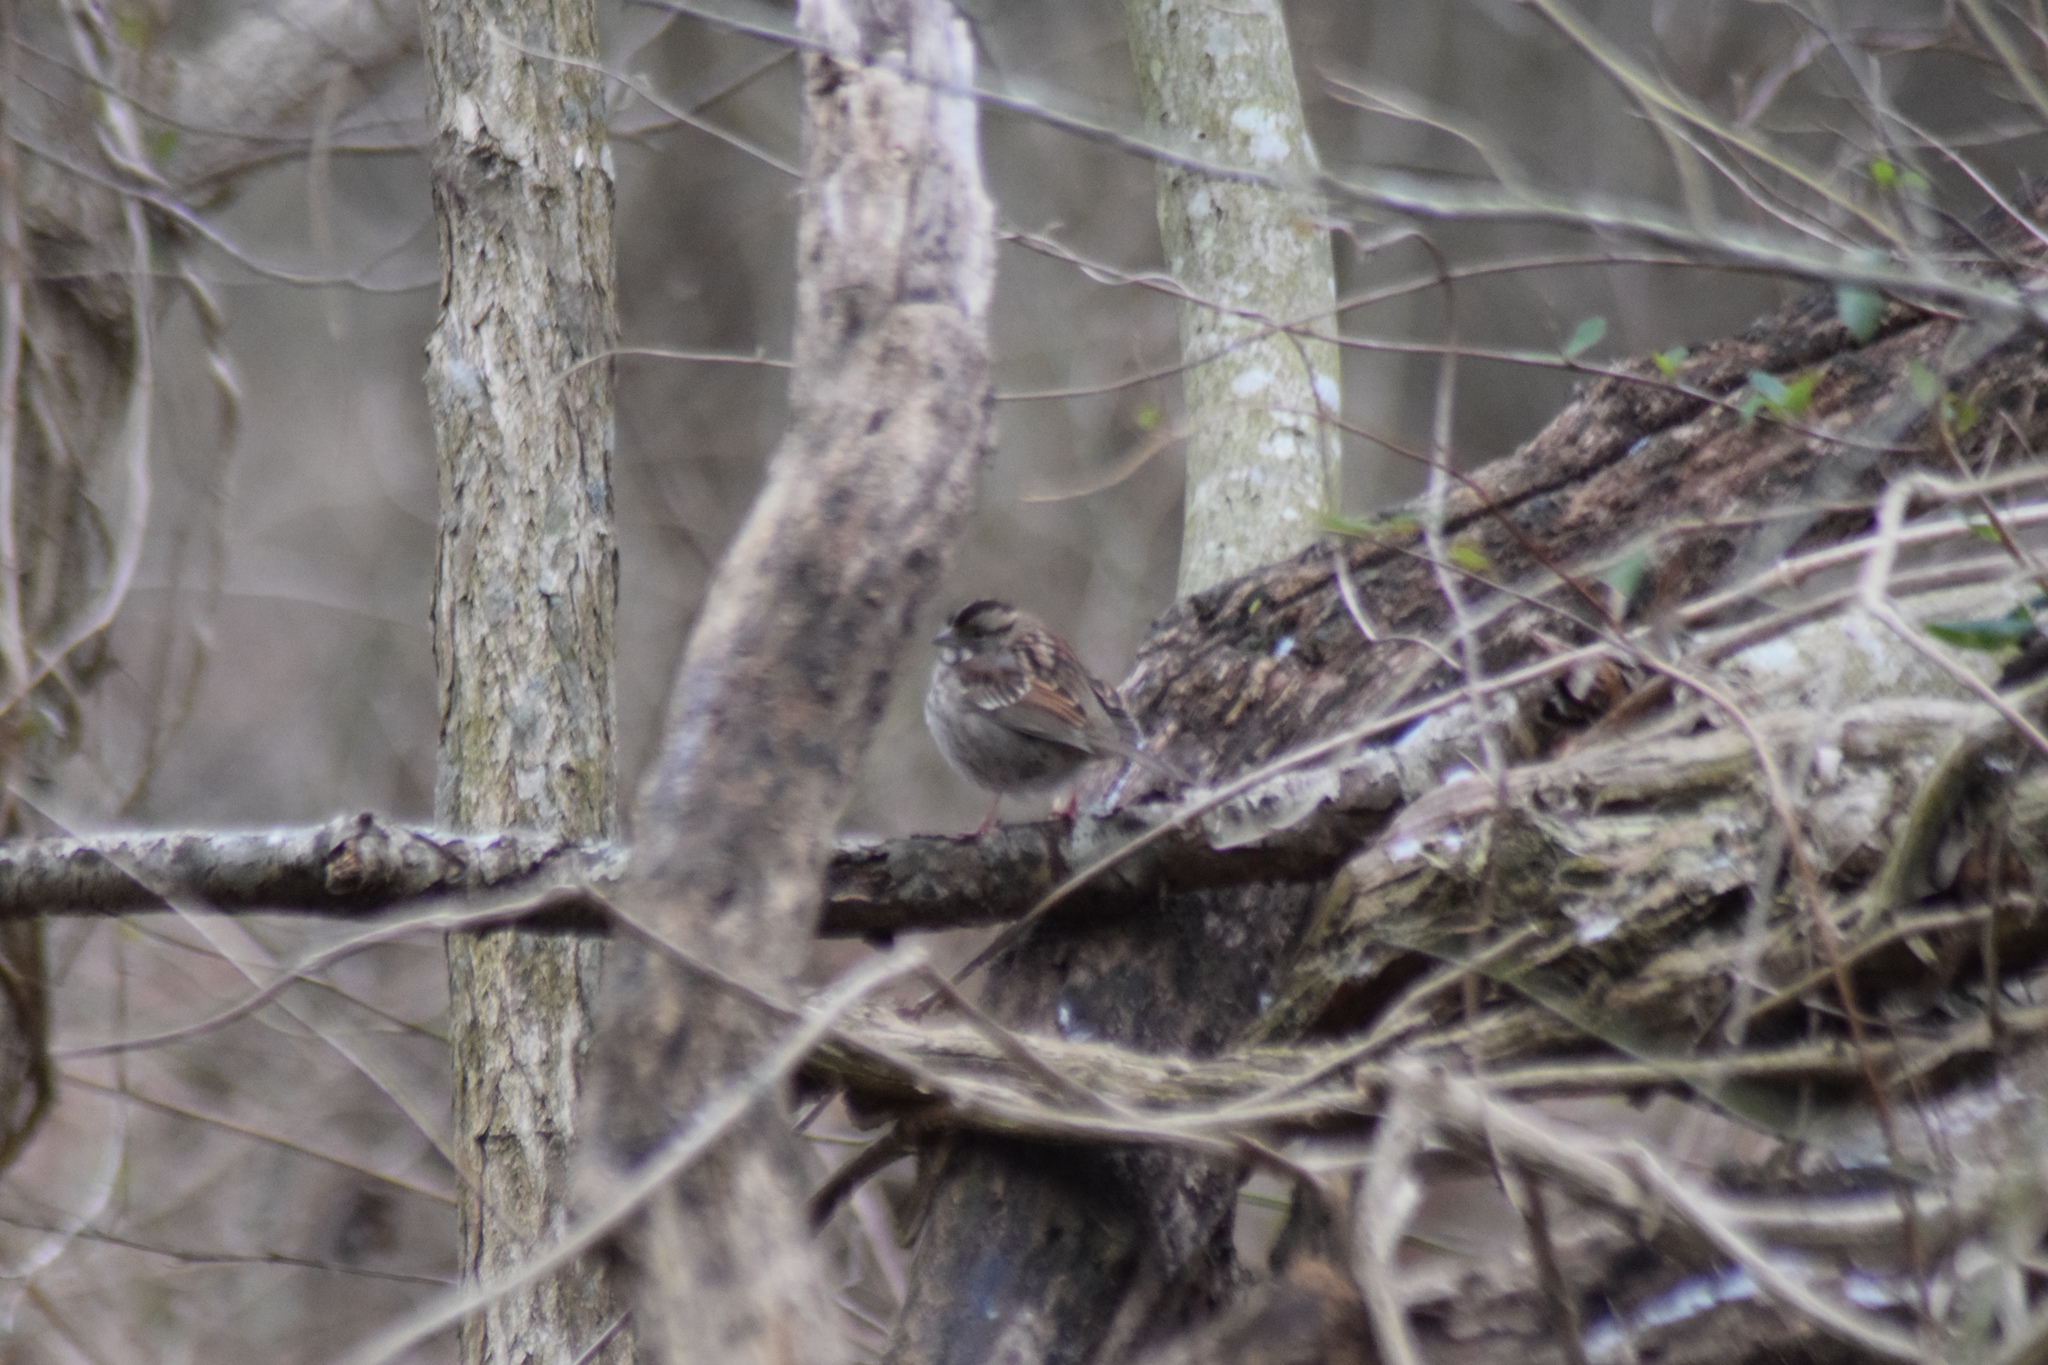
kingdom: Animalia
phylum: Chordata
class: Aves
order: Passeriformes
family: Passerellidae
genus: Zonotrichia
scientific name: Zonotrichia albicollis
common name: White-throated sparrow
